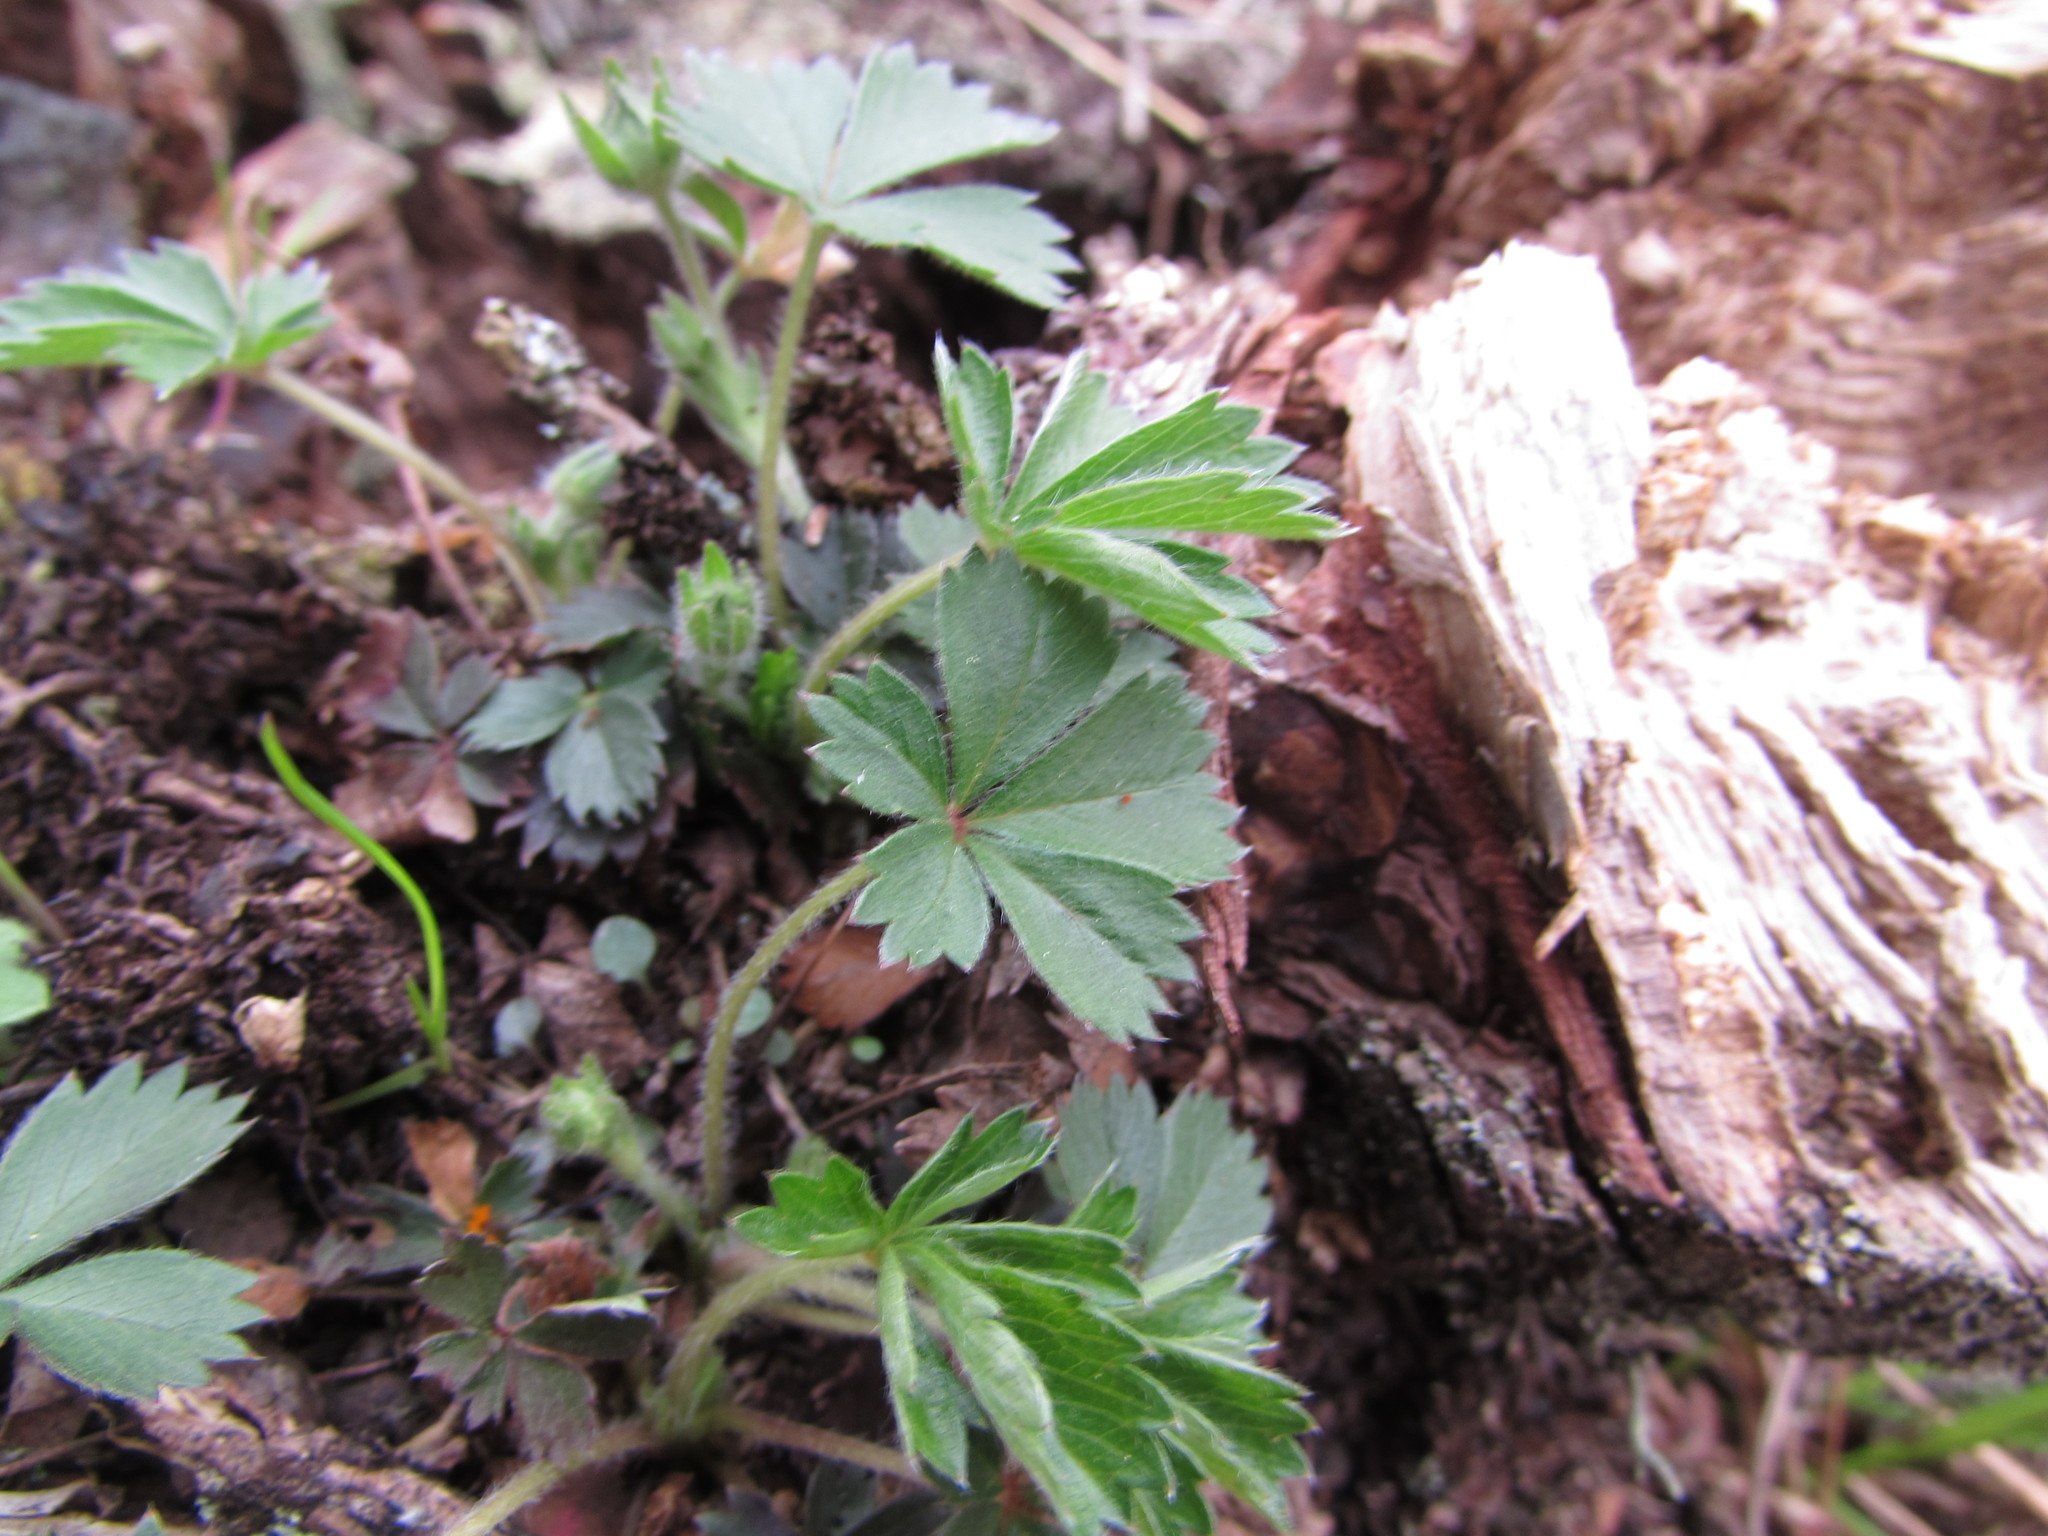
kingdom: Plantae
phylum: Tracheophyta
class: Magnoliopsida
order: Rosales
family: Rosaceae
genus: Potentilla
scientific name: Potentilla canadensis
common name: Canada cinquefoil
